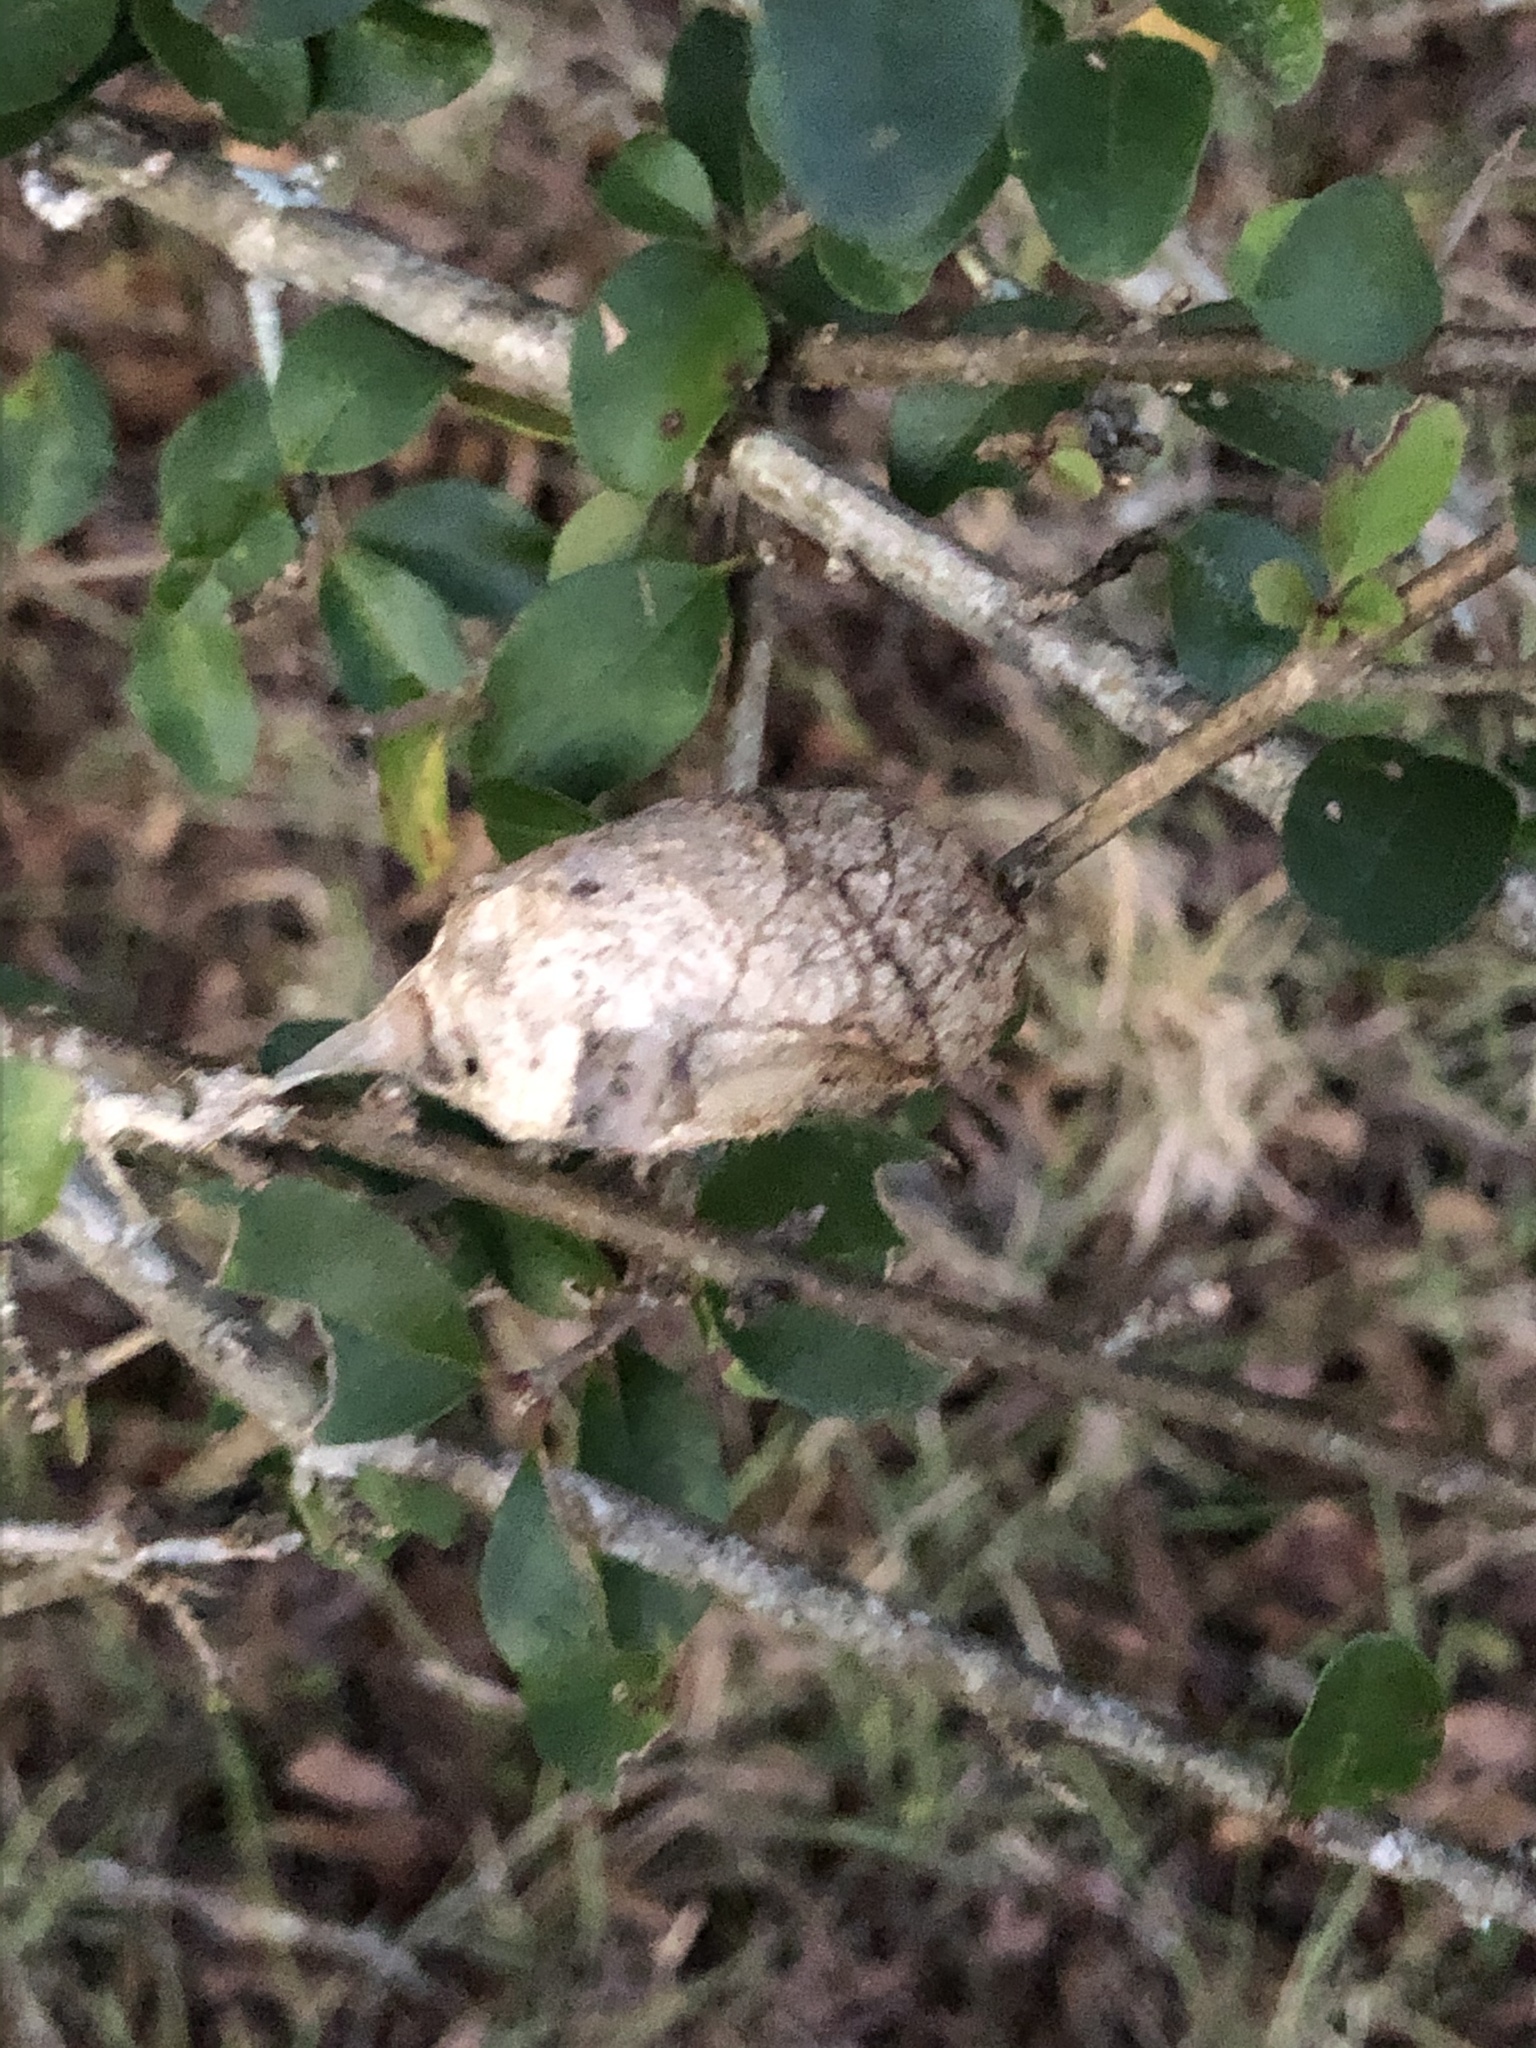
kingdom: Animalia
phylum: Arthropoda
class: Insecta
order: Lepidoptera
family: Saturniidae
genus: Antheraea
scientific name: Antheraea polyphemus
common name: Polyphemus moth
